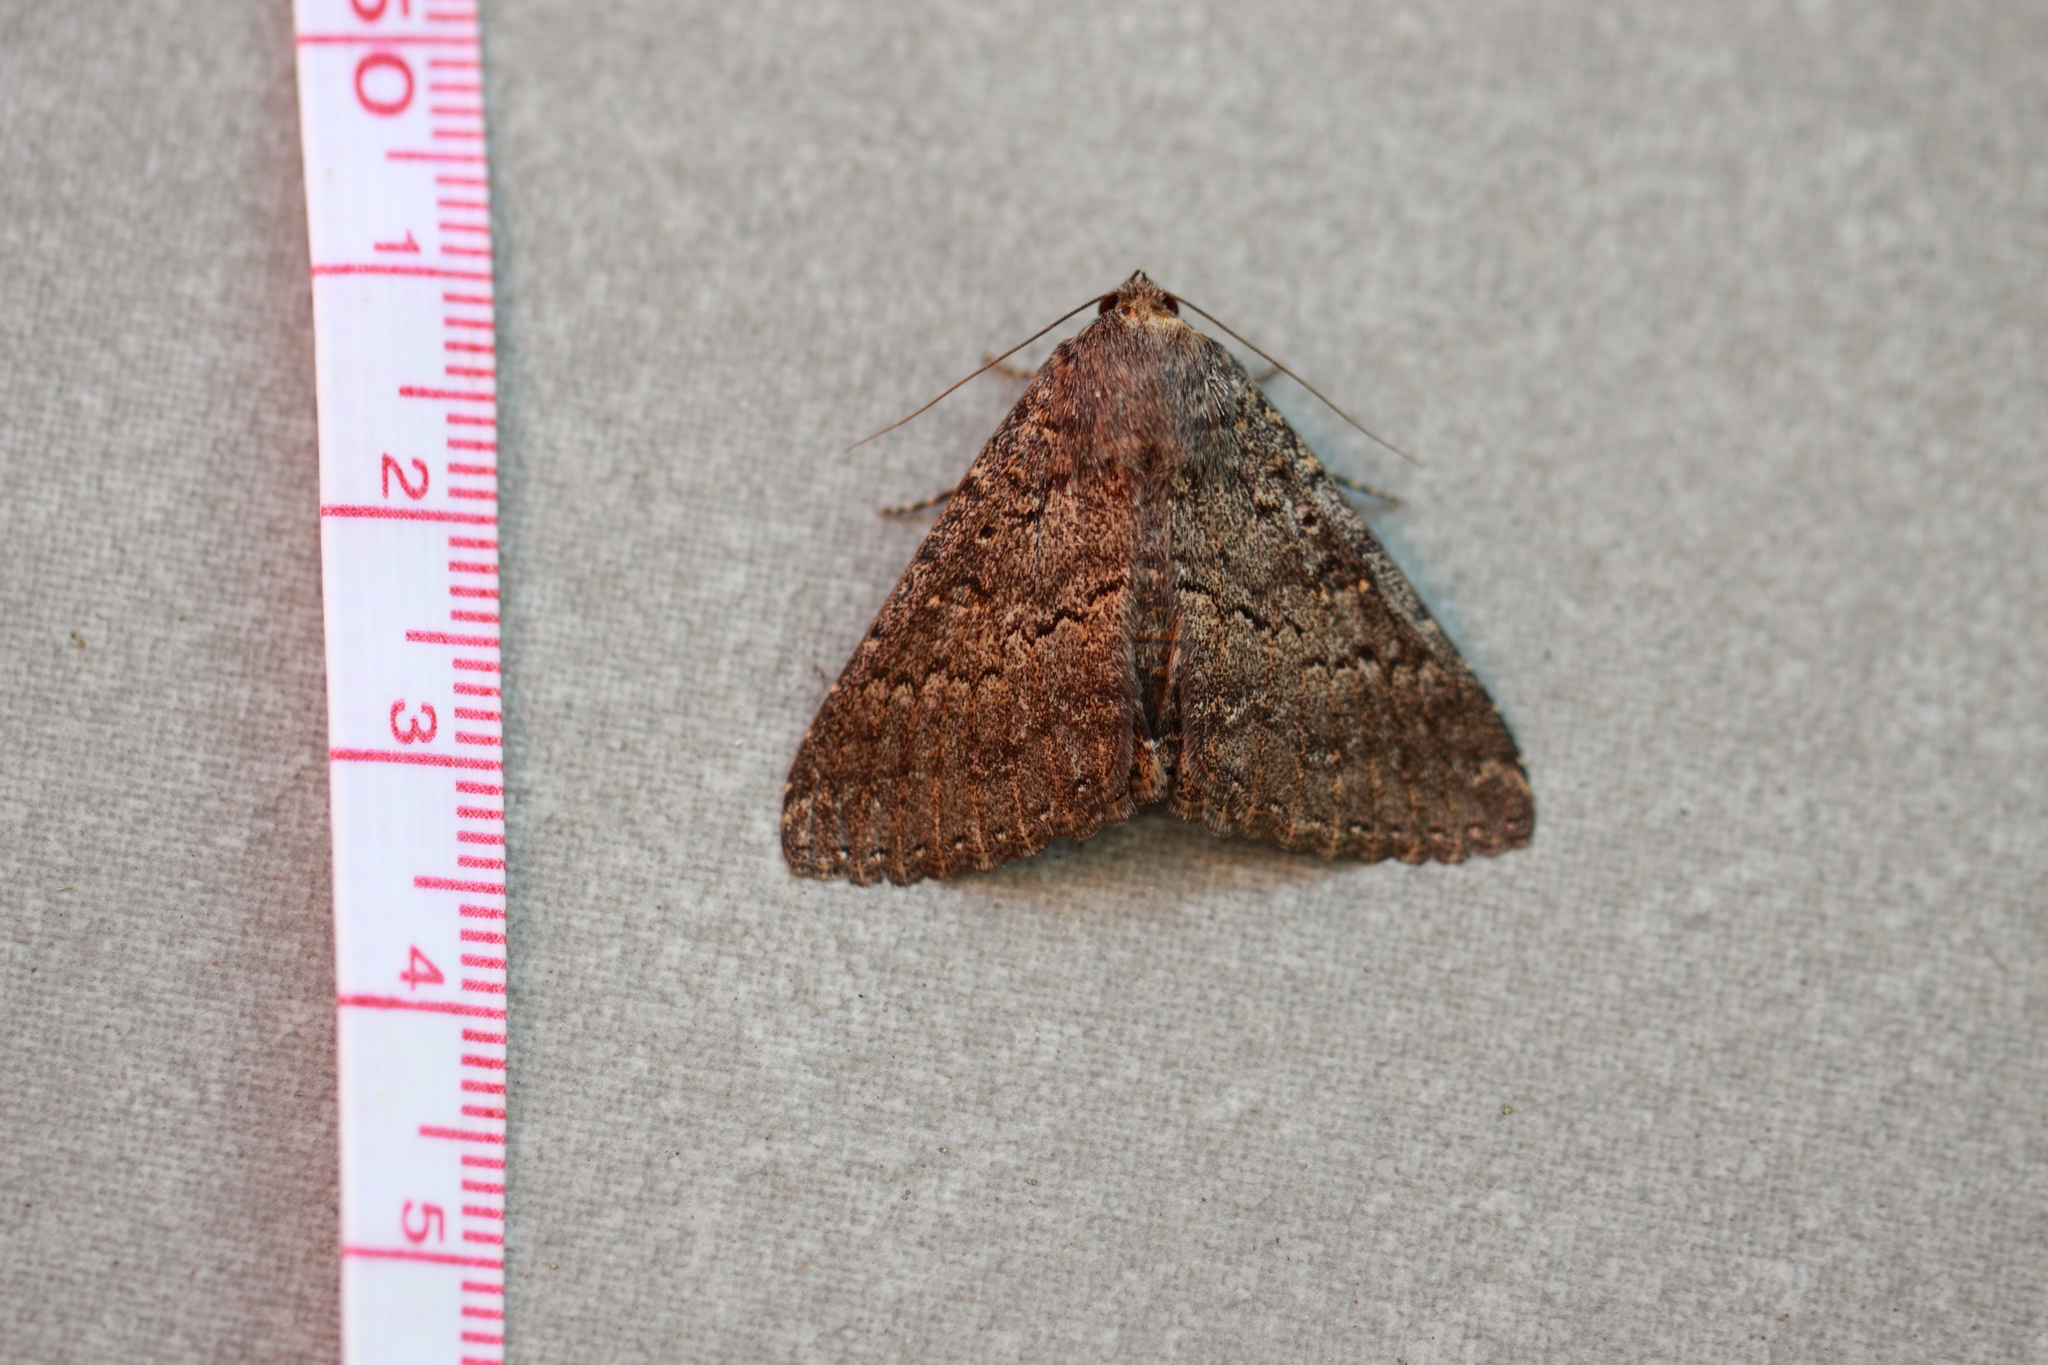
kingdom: Animalia
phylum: Arthropoda
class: Insecta
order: Lepidoptera
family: Erebidae
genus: Eudesmeola
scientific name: Eudesmeola lawsoni
